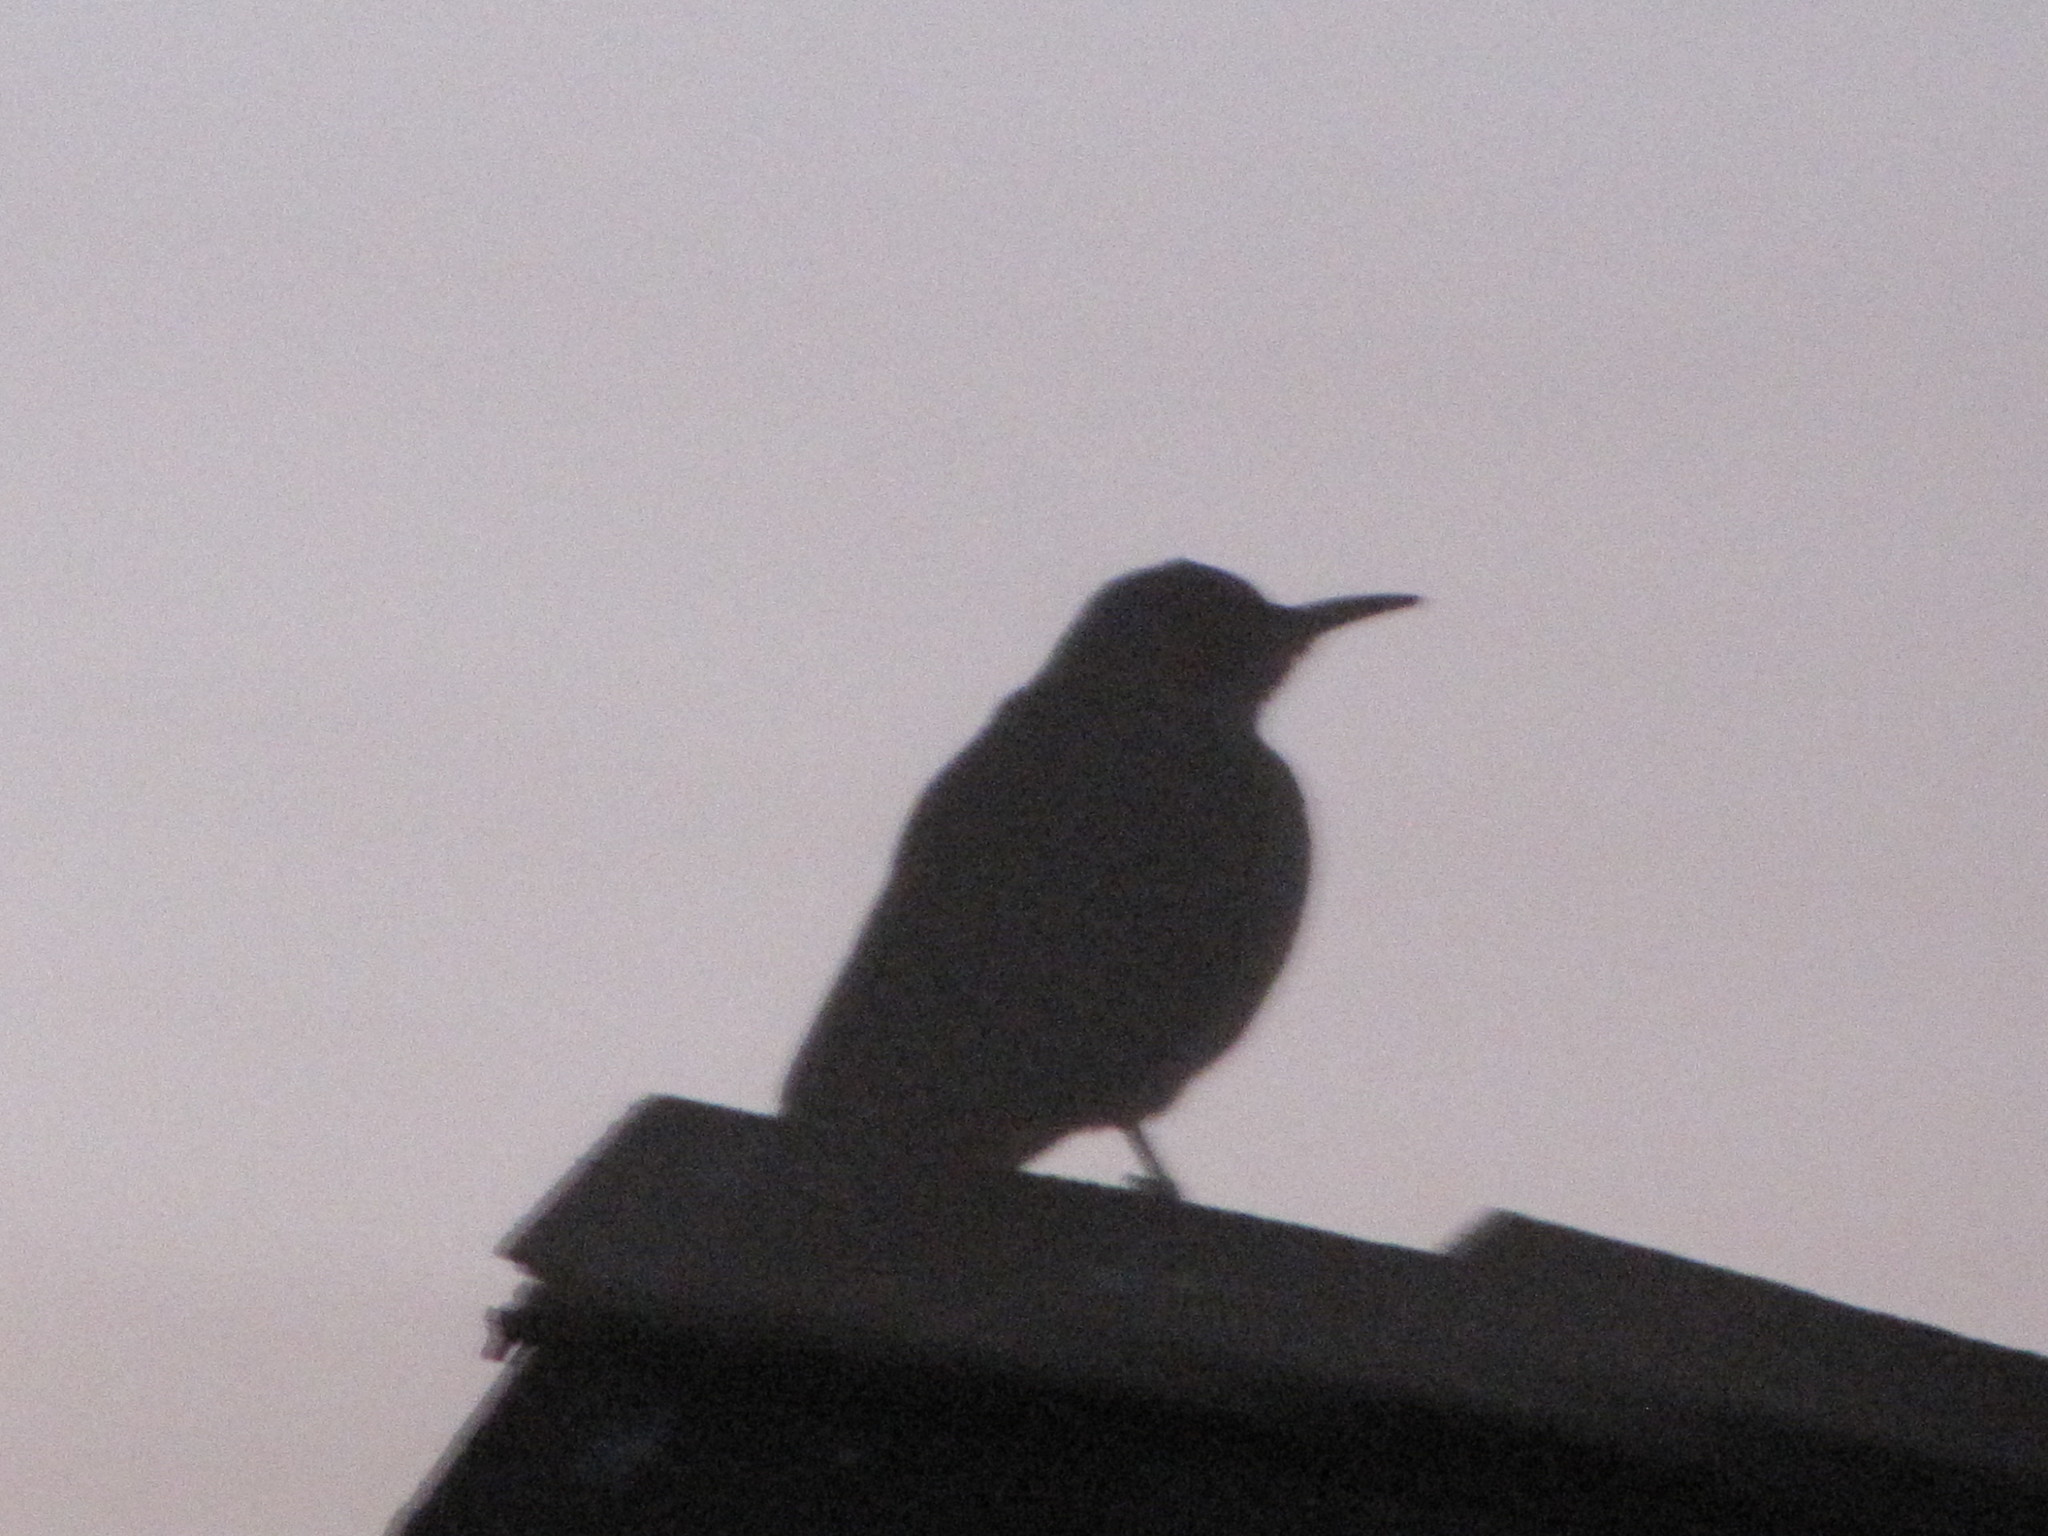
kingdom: Animalia
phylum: Chordata
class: Aves
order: Piciformes
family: Picidae
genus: Colaptes
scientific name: Colaptes auratus
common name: Northern flicker
